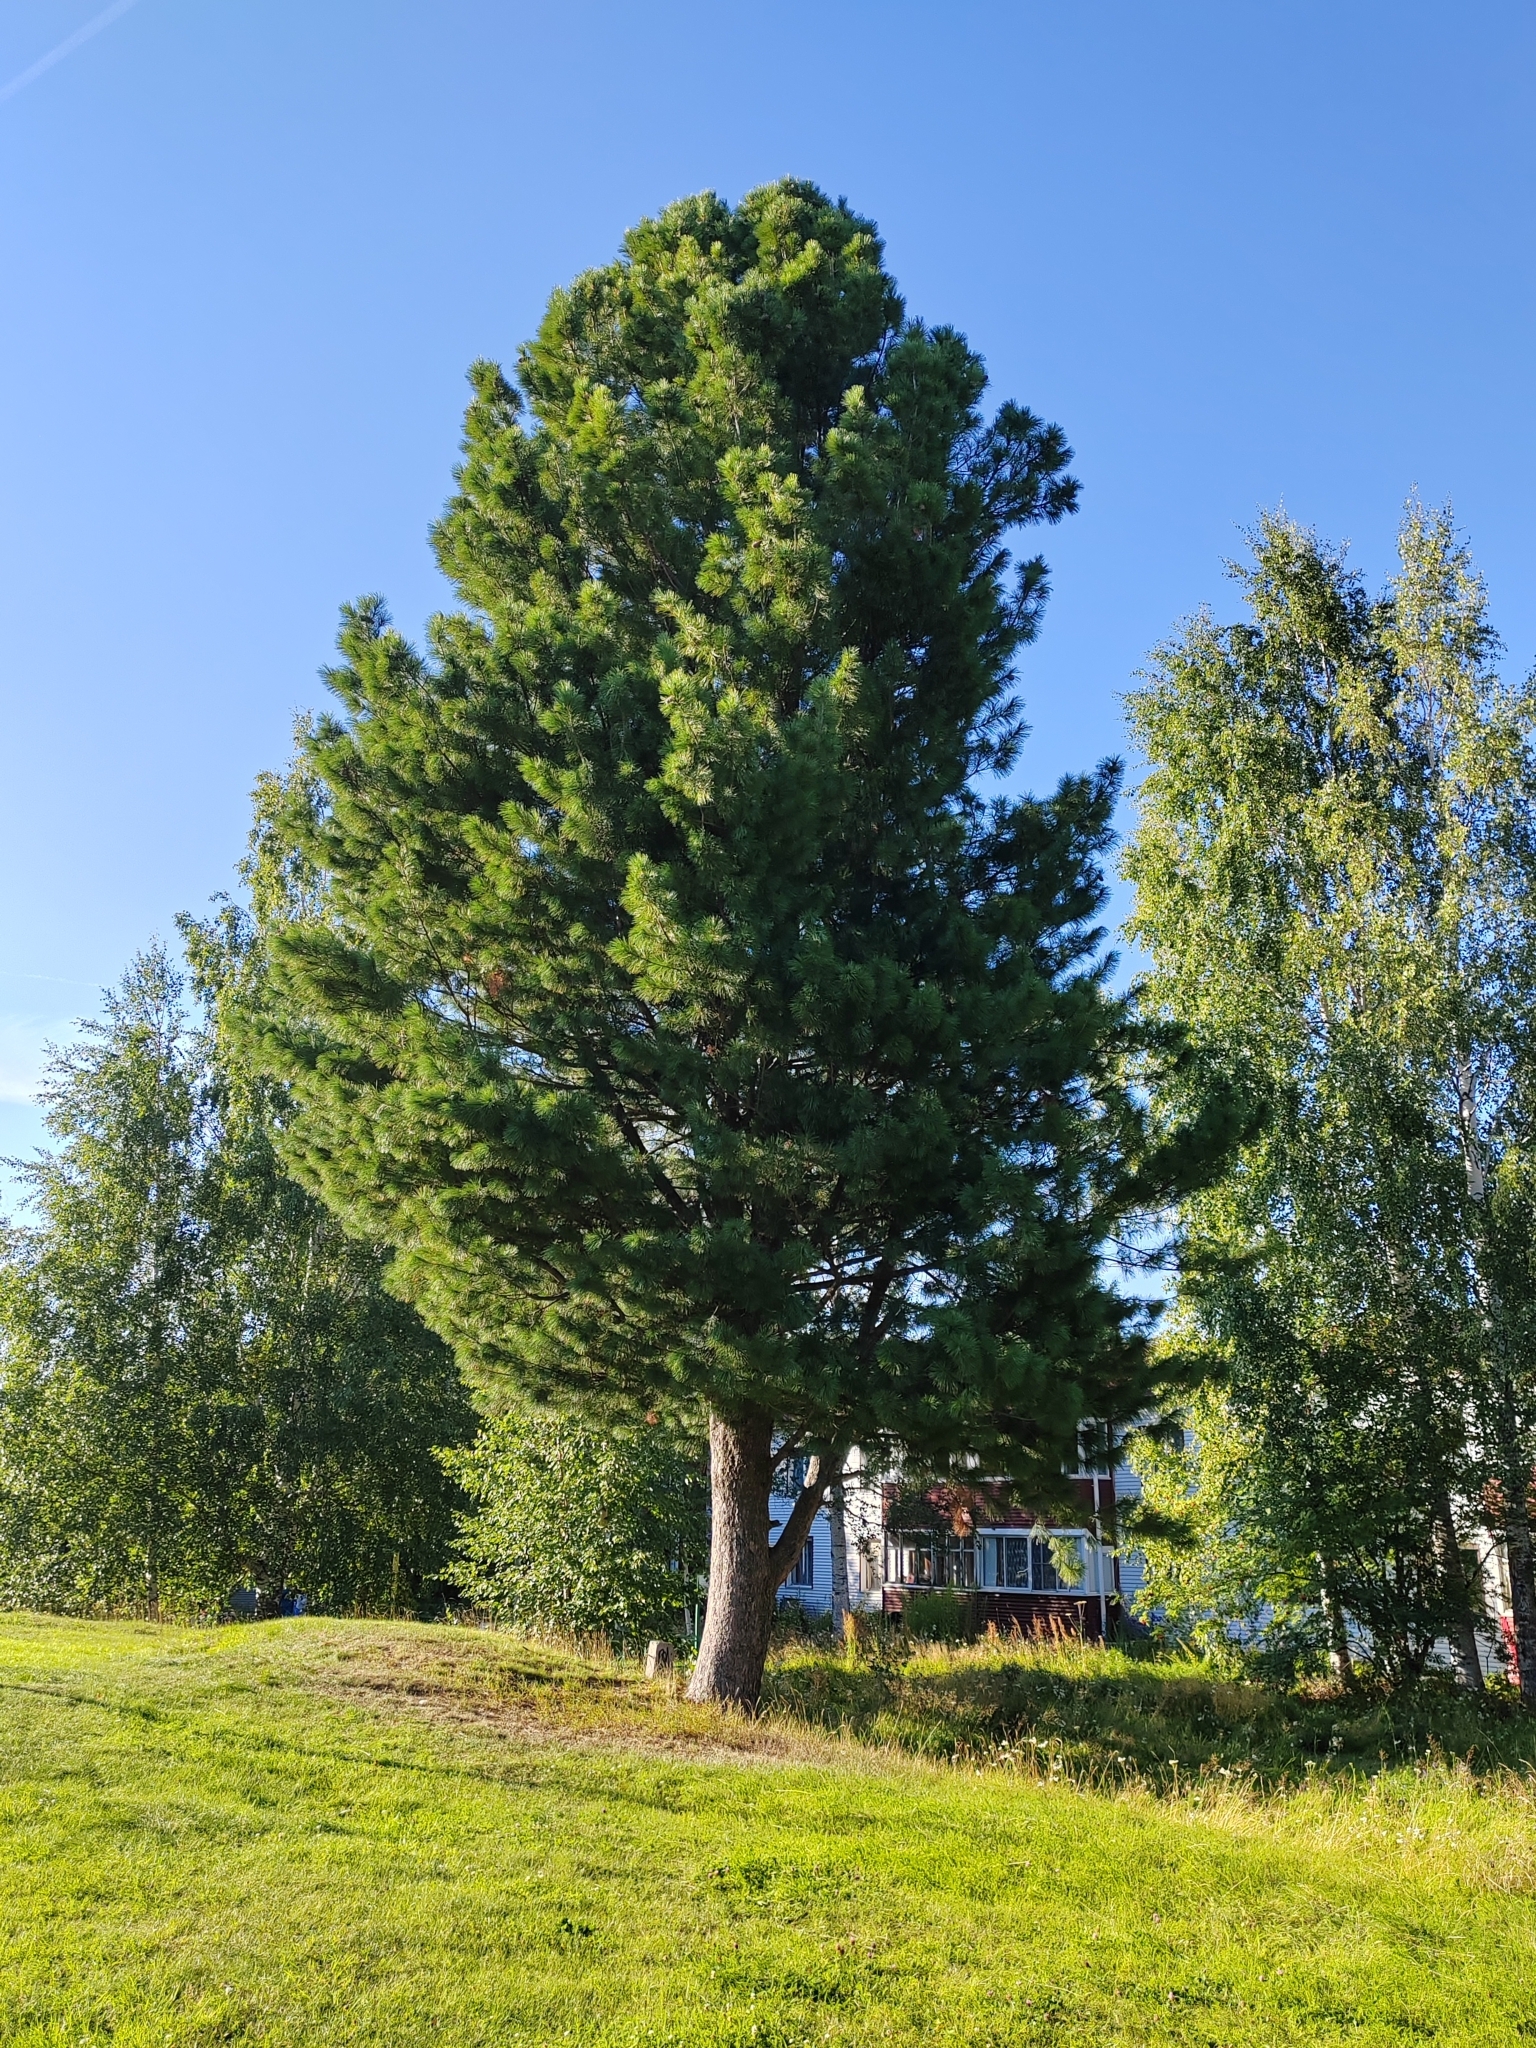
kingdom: Plantae
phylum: Tracheophyta
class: Pinopsida
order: Pinales
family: Pinaceae
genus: Pinus
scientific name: Pinus sibirica
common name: Siberian pine
